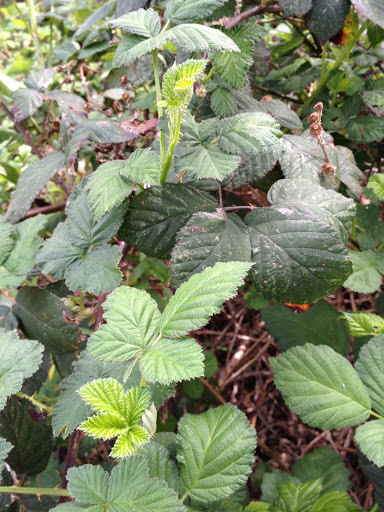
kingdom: Plantae
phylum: Tracheophyta
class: Magnoliopsida
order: Rosales
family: Rosaceae
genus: Rubus
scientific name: Rubus armeniacus
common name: Himalayan blackberry
